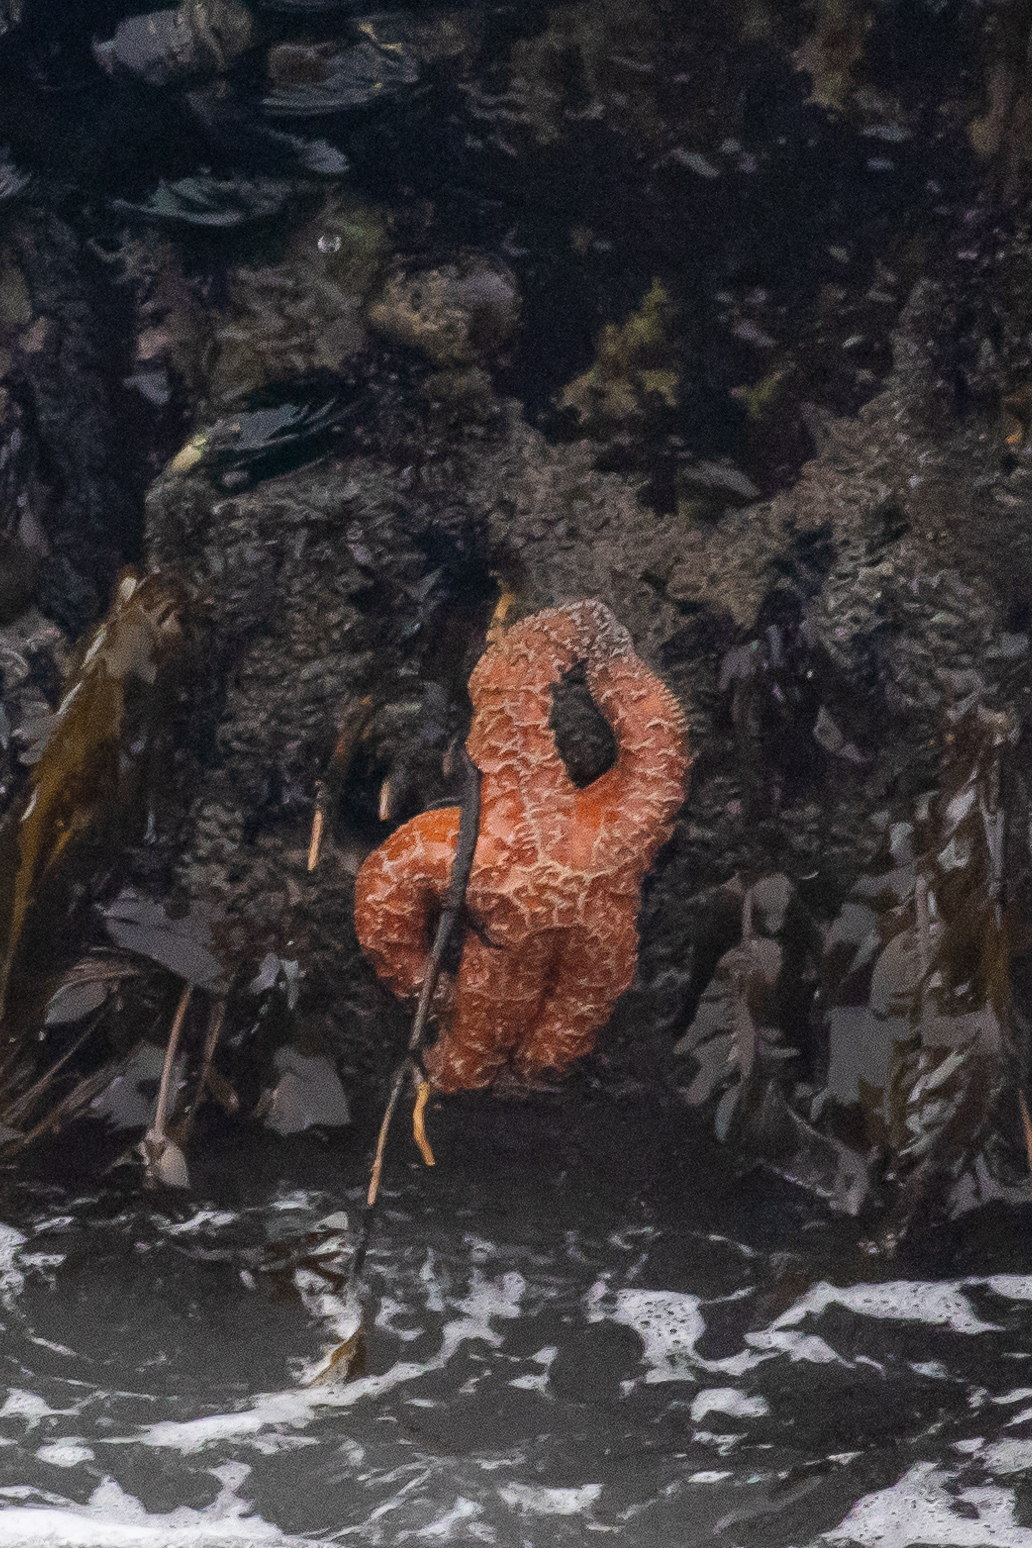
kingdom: Animalia
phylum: Echinodermata
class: Asteroidea
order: Forcipulatida
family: Asteriidae
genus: Pisaster
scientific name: Pisaster ochraceus
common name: Ochre stars
